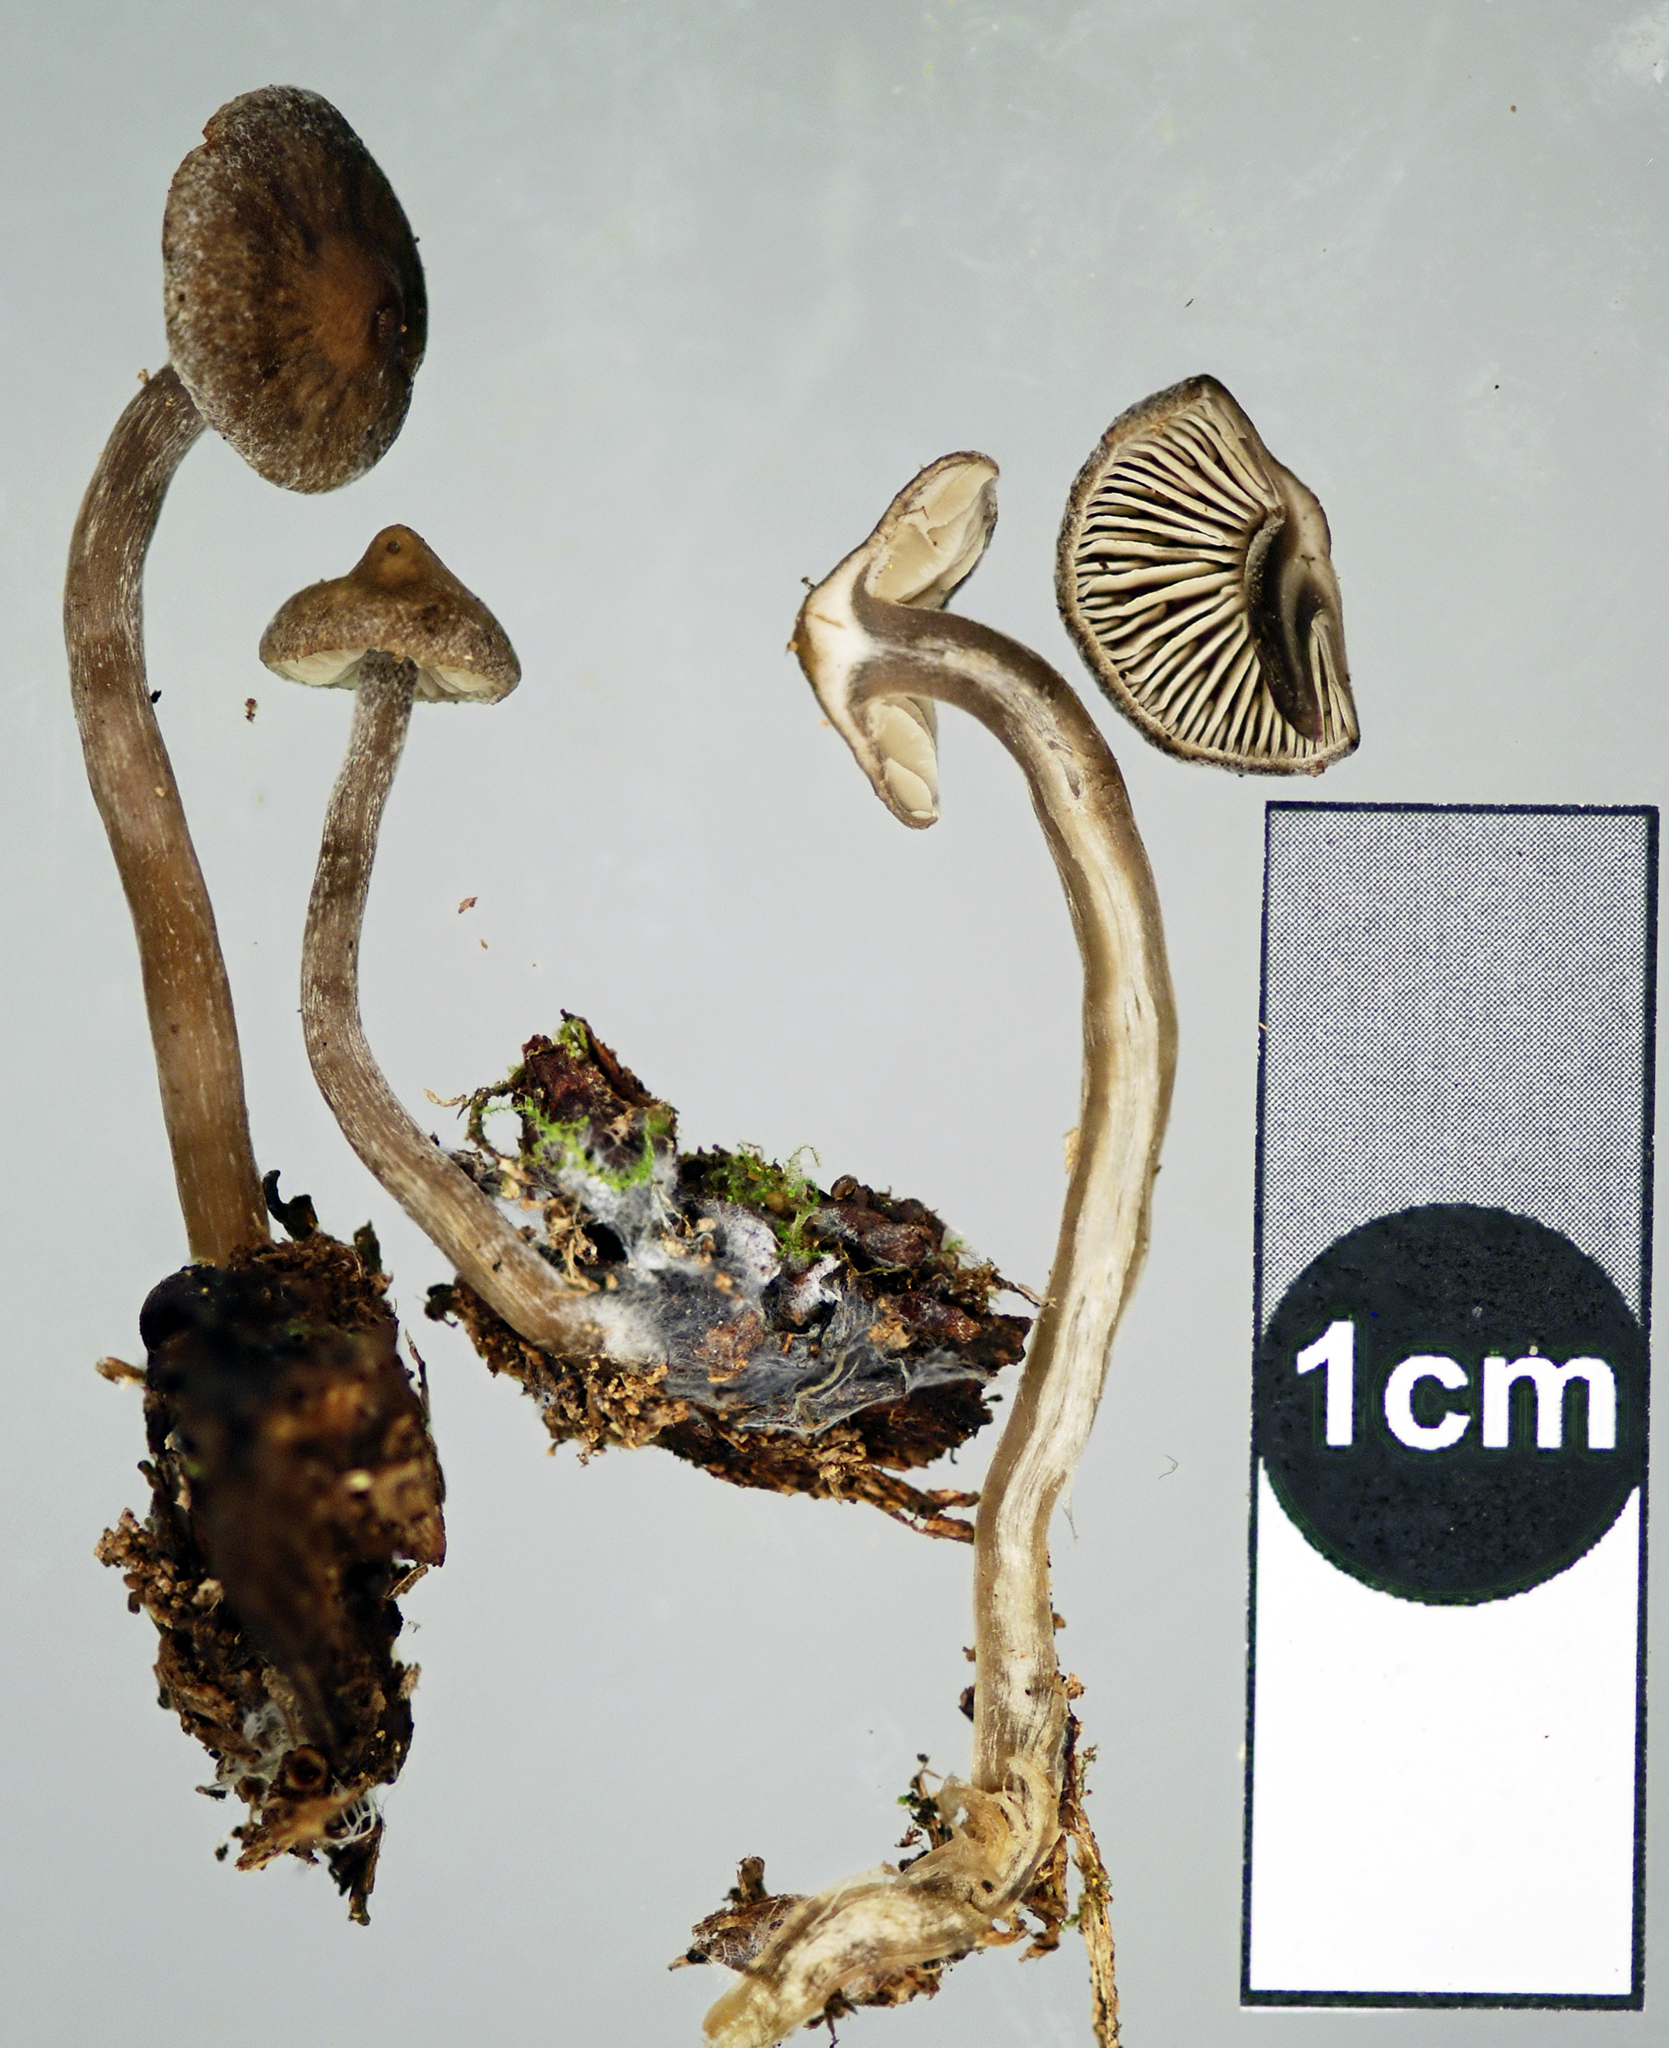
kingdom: Fungi
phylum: Basidiomycota
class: Agaricomycetes
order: Agaricales
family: Lyophyllaceae
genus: Myochromella
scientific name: Myochromella
